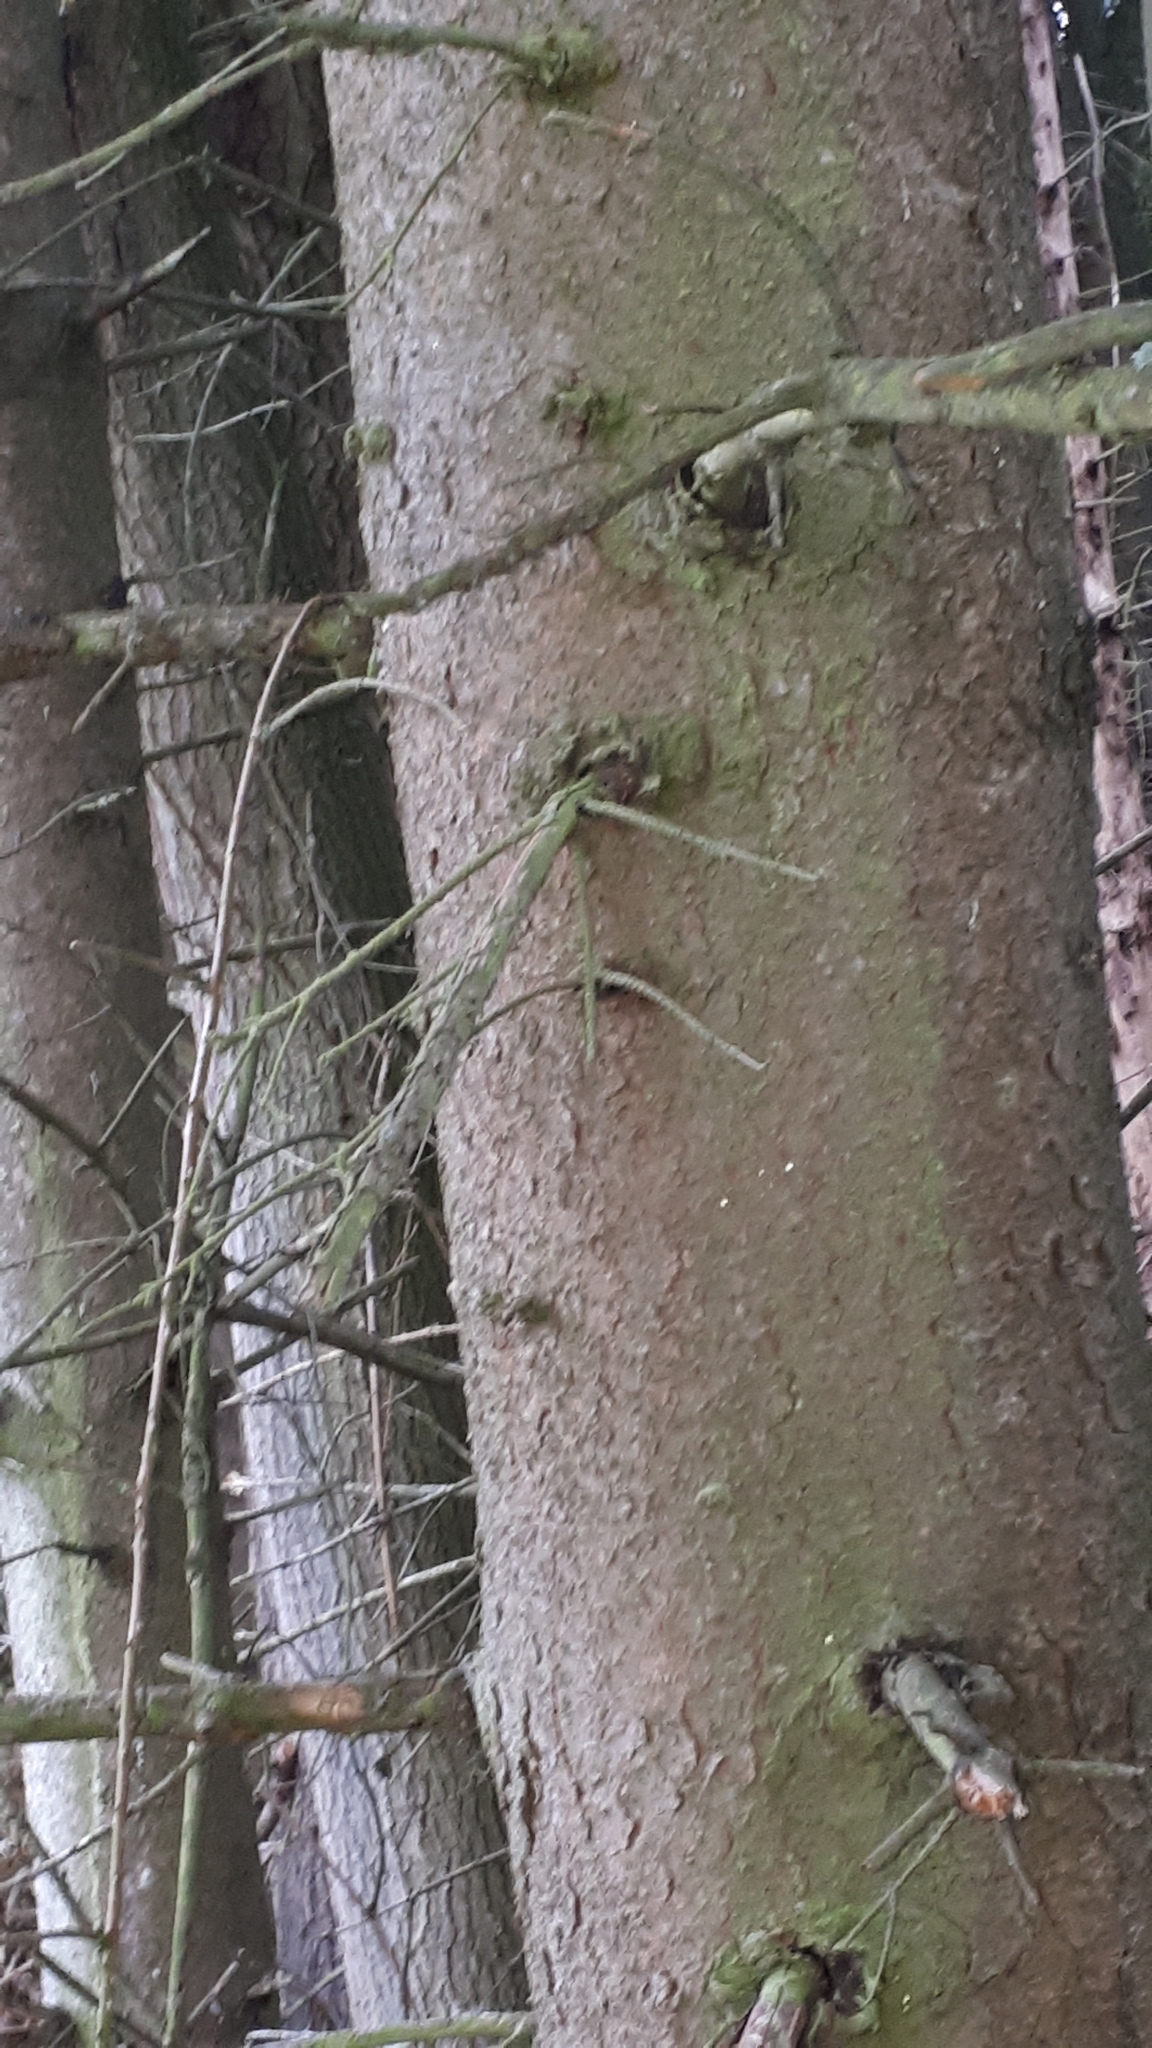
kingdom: Plantae
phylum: Tracheophyta
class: Pinopsida
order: Pinales
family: Pinaceae
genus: Picea
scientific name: Picea abies
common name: Norway spruce
